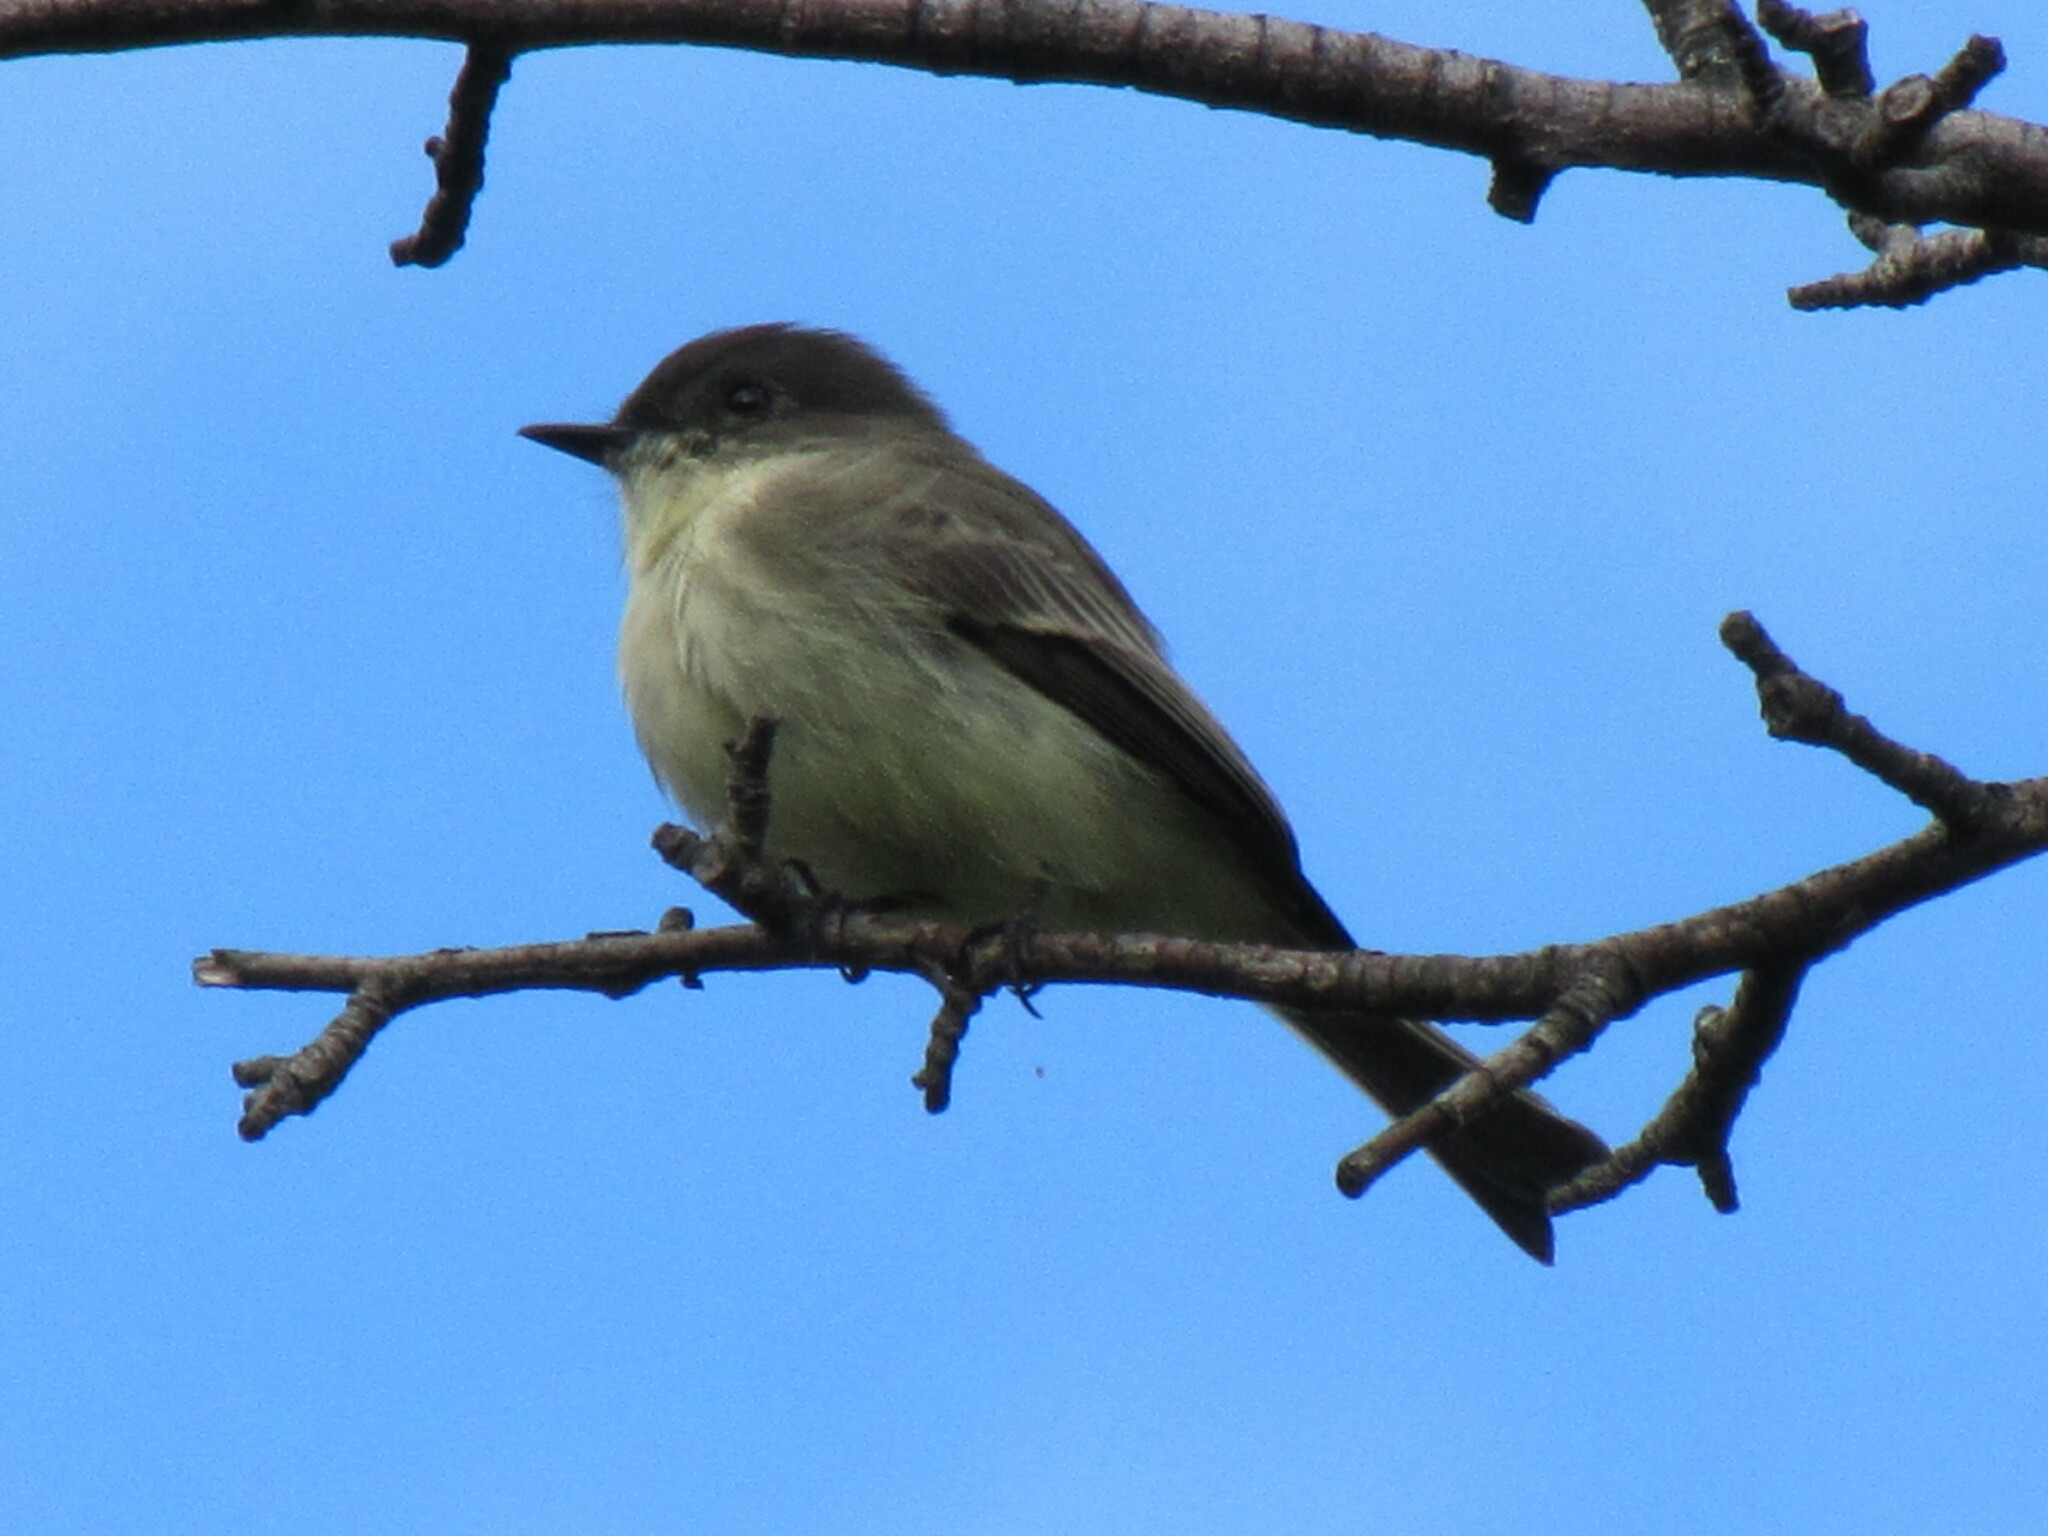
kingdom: Animalia
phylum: Chordata
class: Aves
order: Passeriformes
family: Tyrannidae
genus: Sayornis
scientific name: Sayornis phoebe
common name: Eastern phoebe
